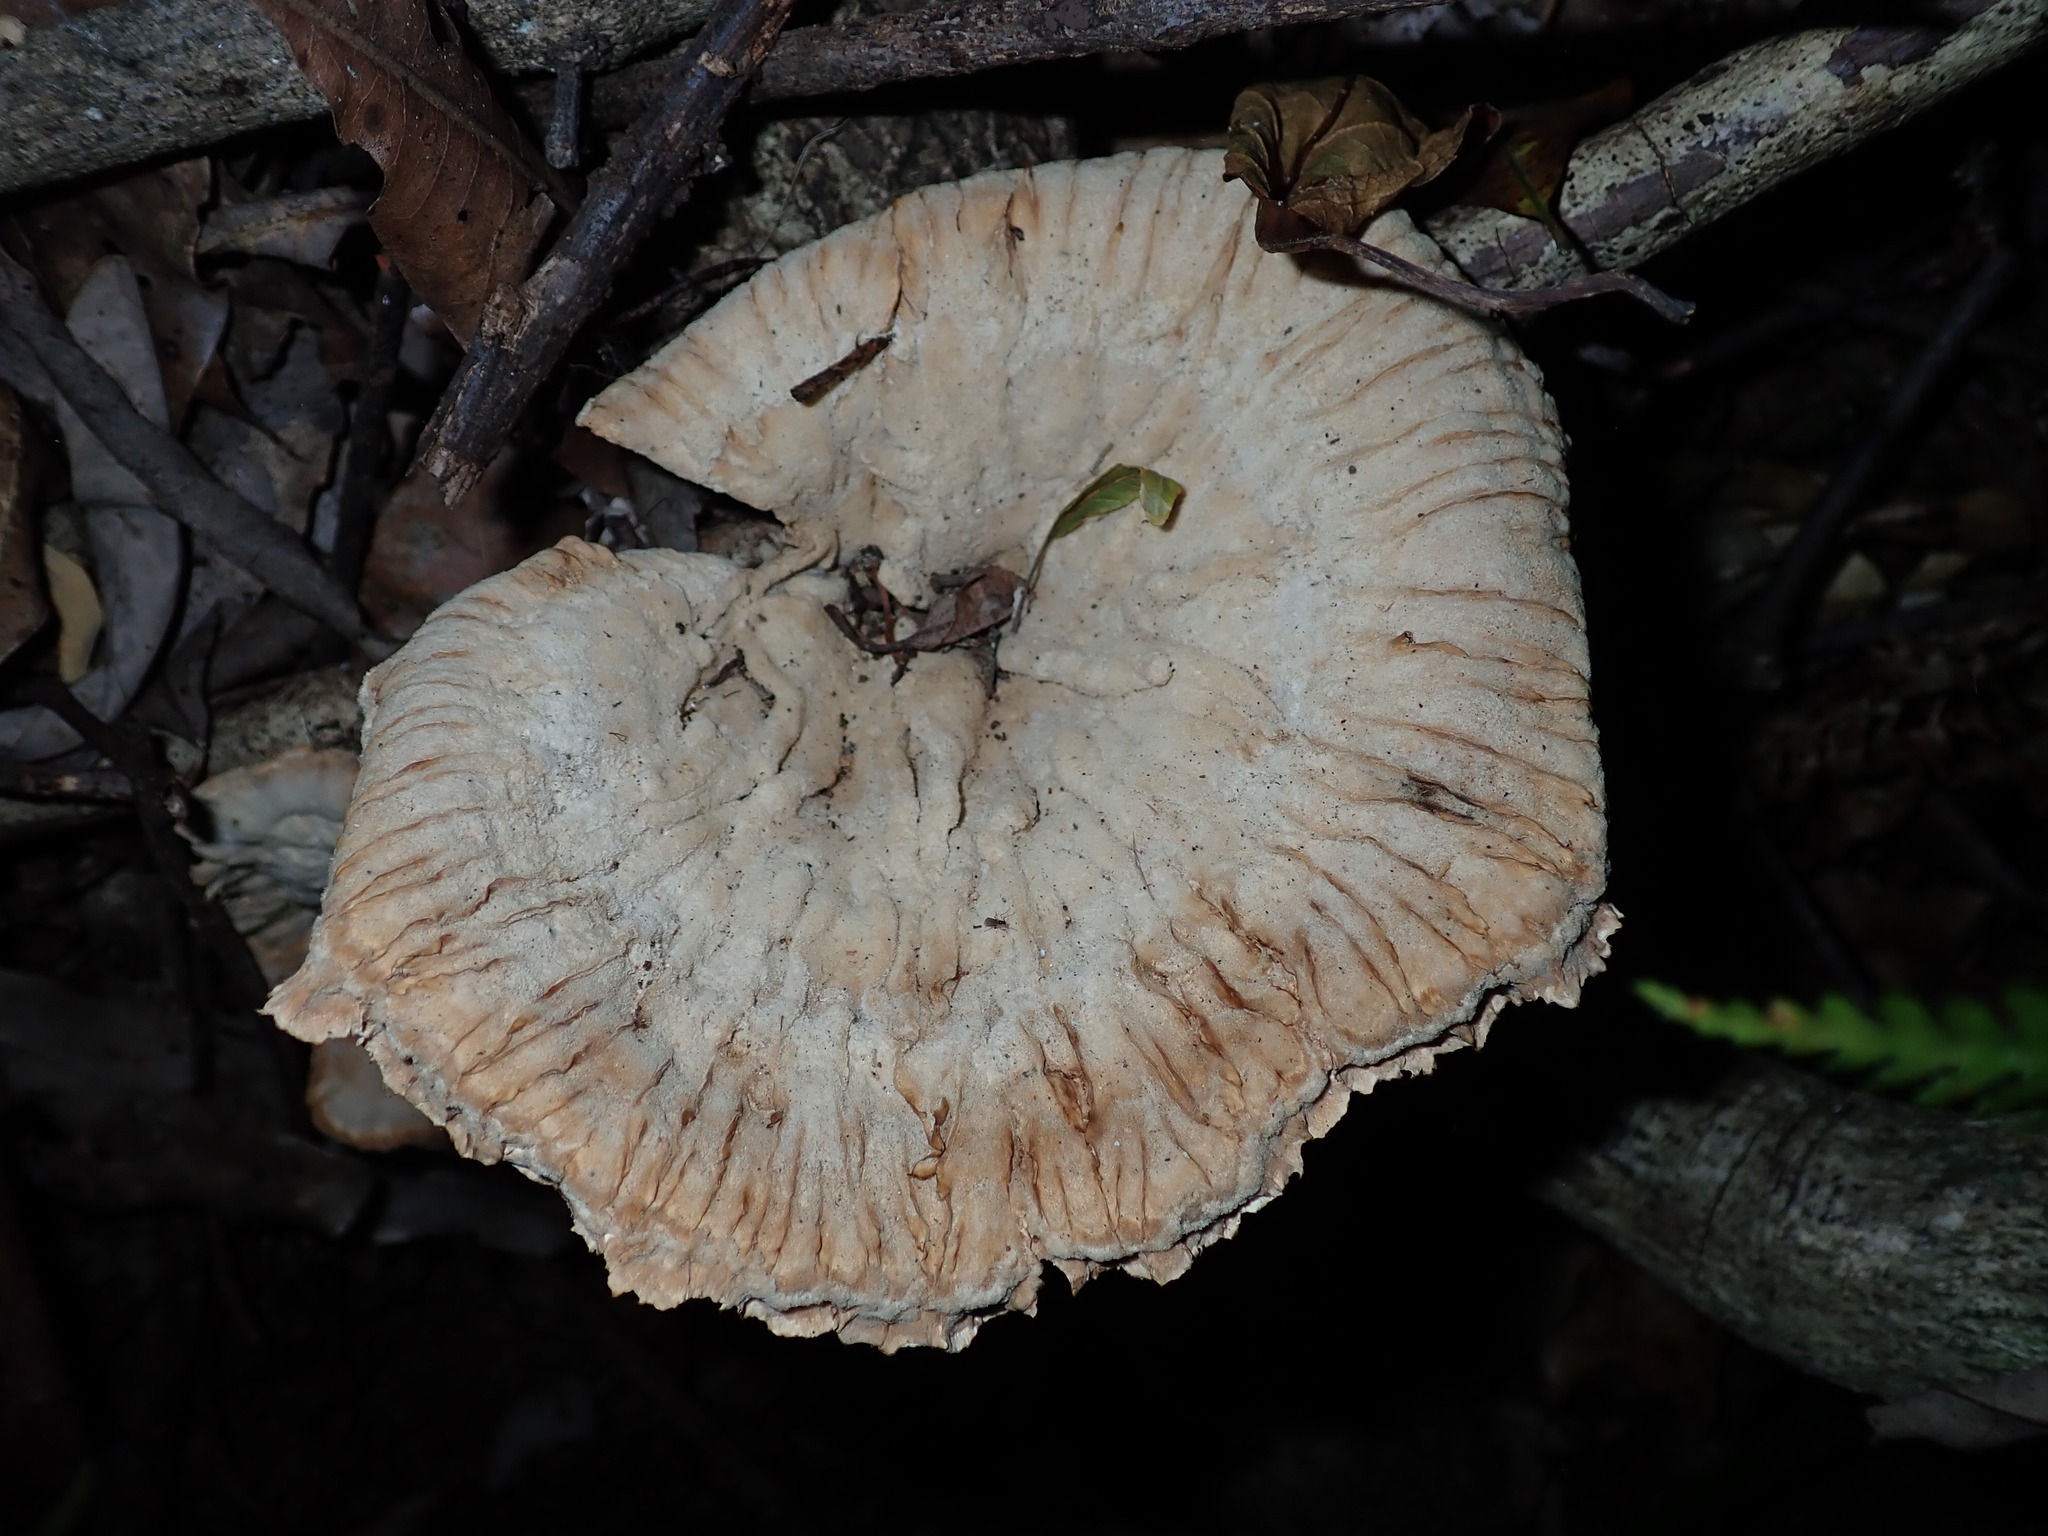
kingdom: Fungi
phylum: Basidiomycota
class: Agaricomycetes
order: Polyporales
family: Panaceae
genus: Cymatoderma
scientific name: Cymatoderma elegans
